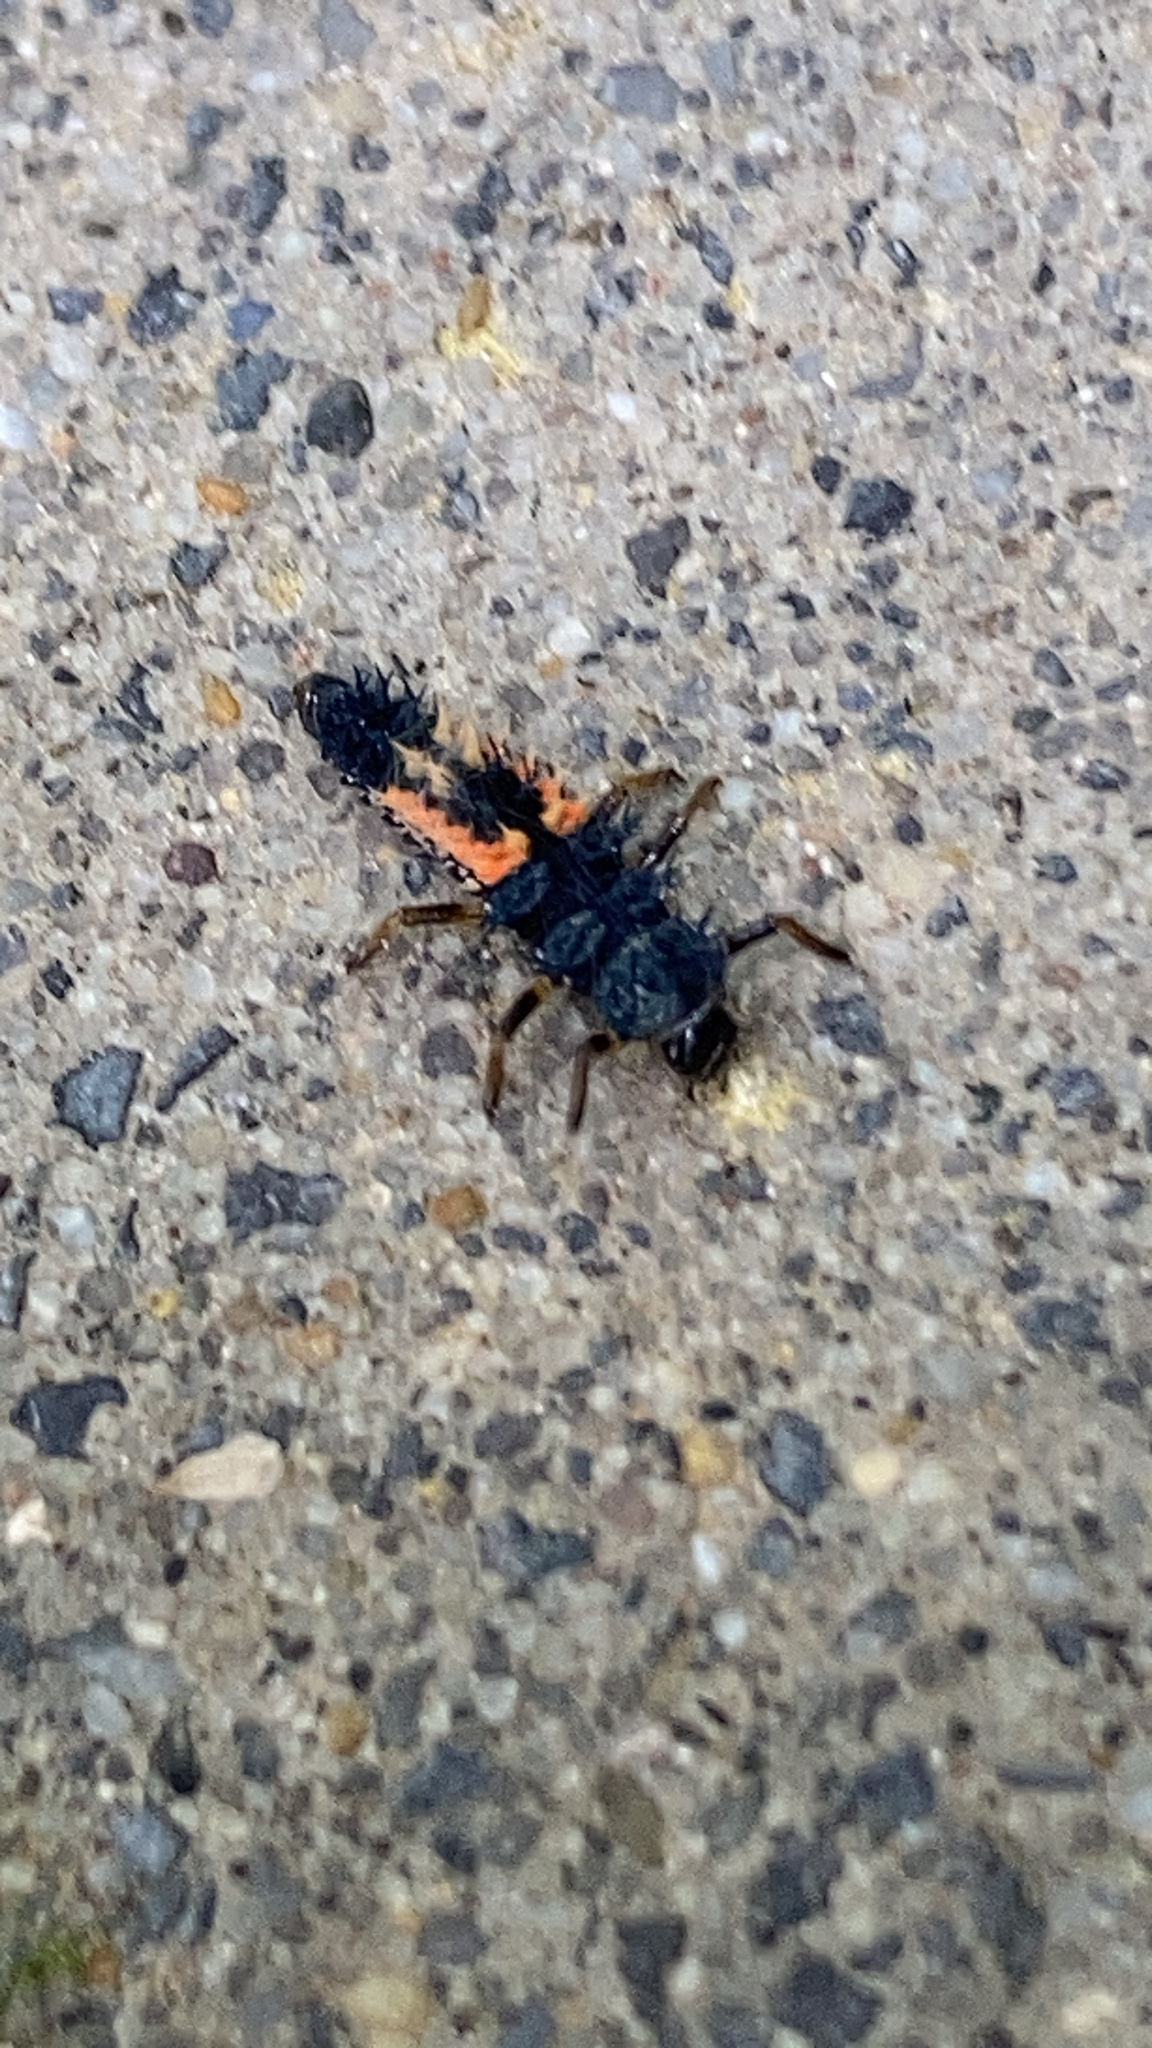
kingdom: Animalia
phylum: Arthropoda
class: Insecta
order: Coleoptera
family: Coccinellidae
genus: Harmonia
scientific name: Harmonia axyridis
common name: Harlequin ladybird
